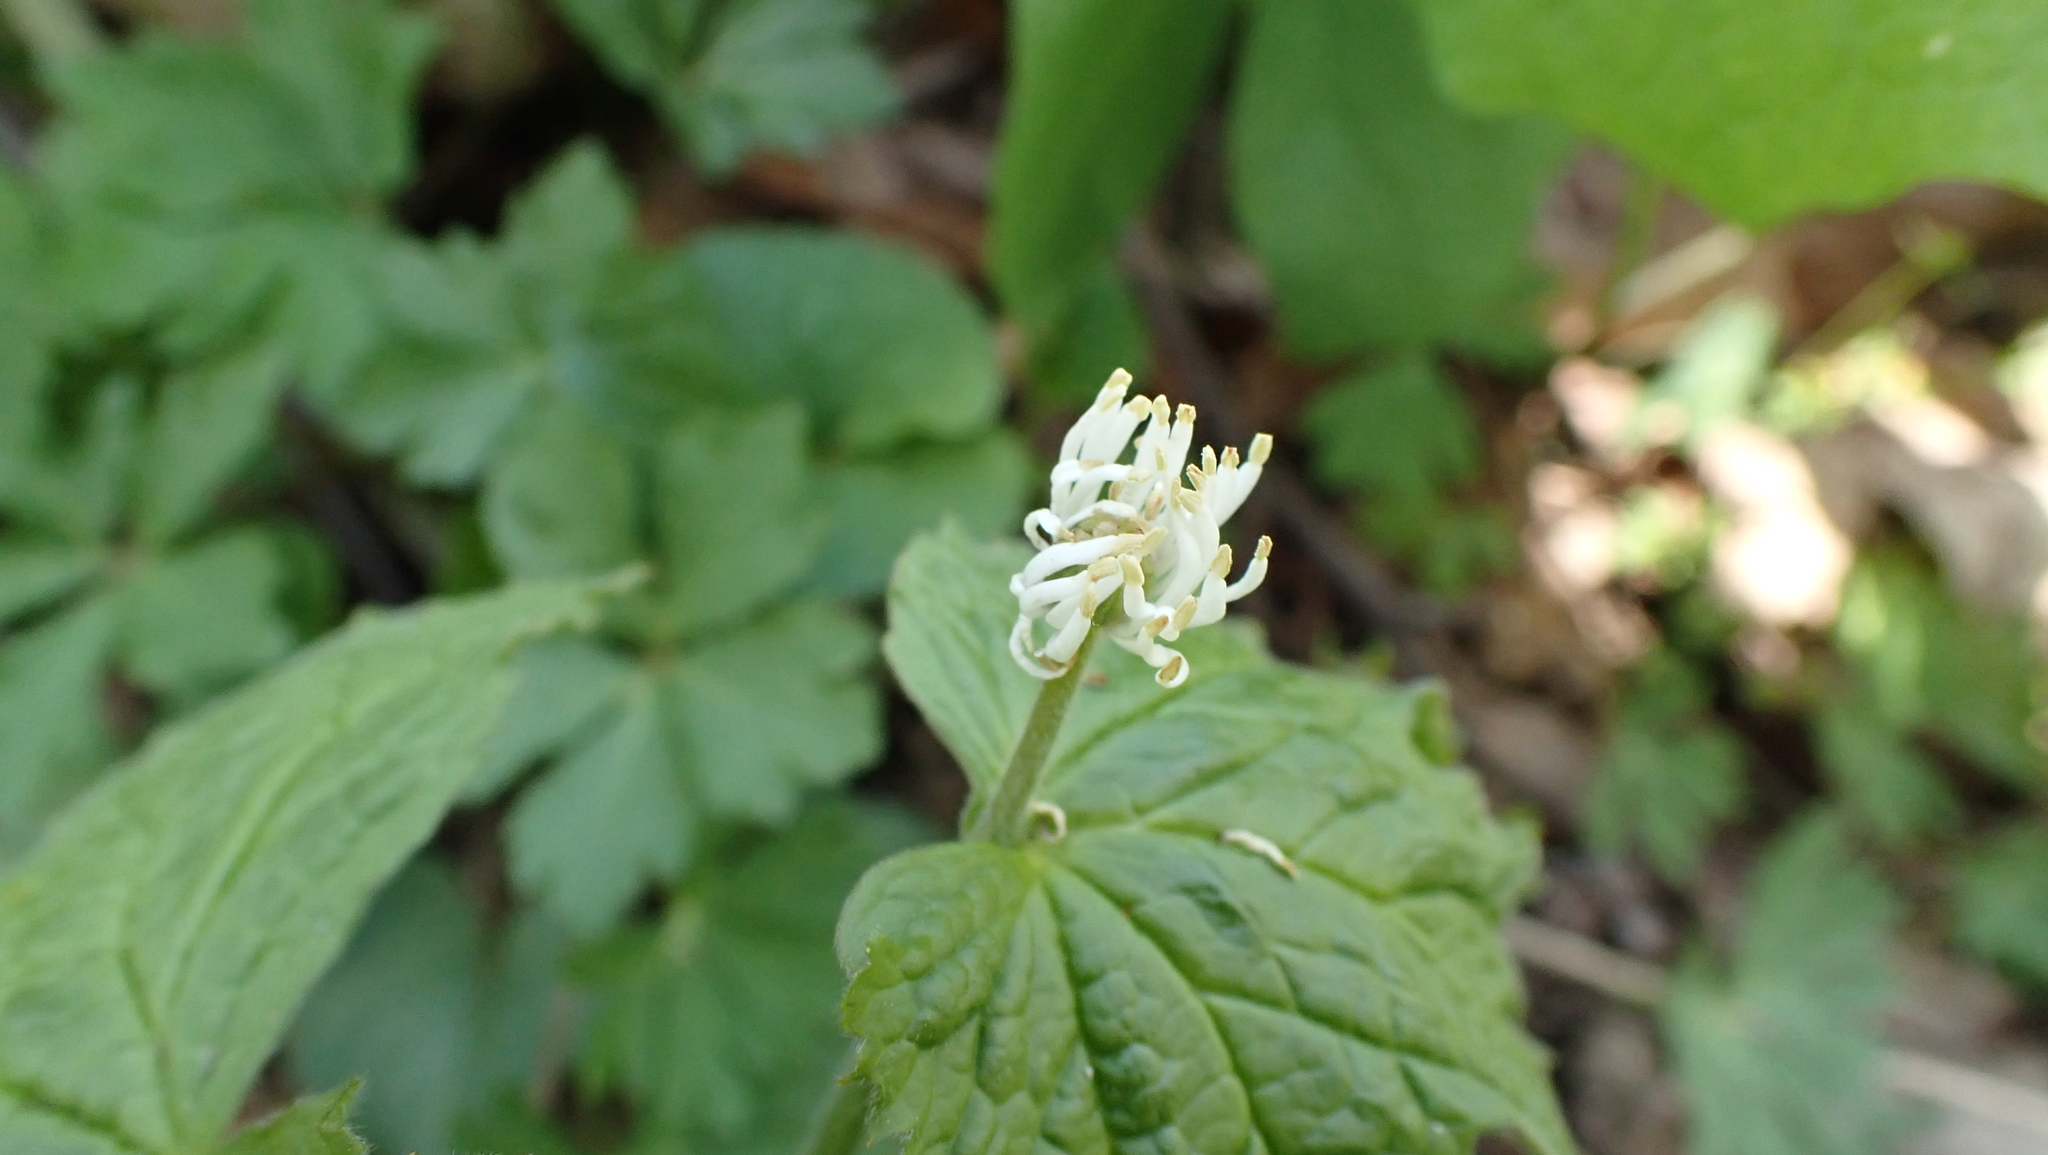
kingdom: Plantae
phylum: Tracheophyta
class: Magnoliopsida
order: Ranunculales
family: Ranunculaceae
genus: Hydrastis
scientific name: Hydrastis canadensis
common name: Goldenseal
